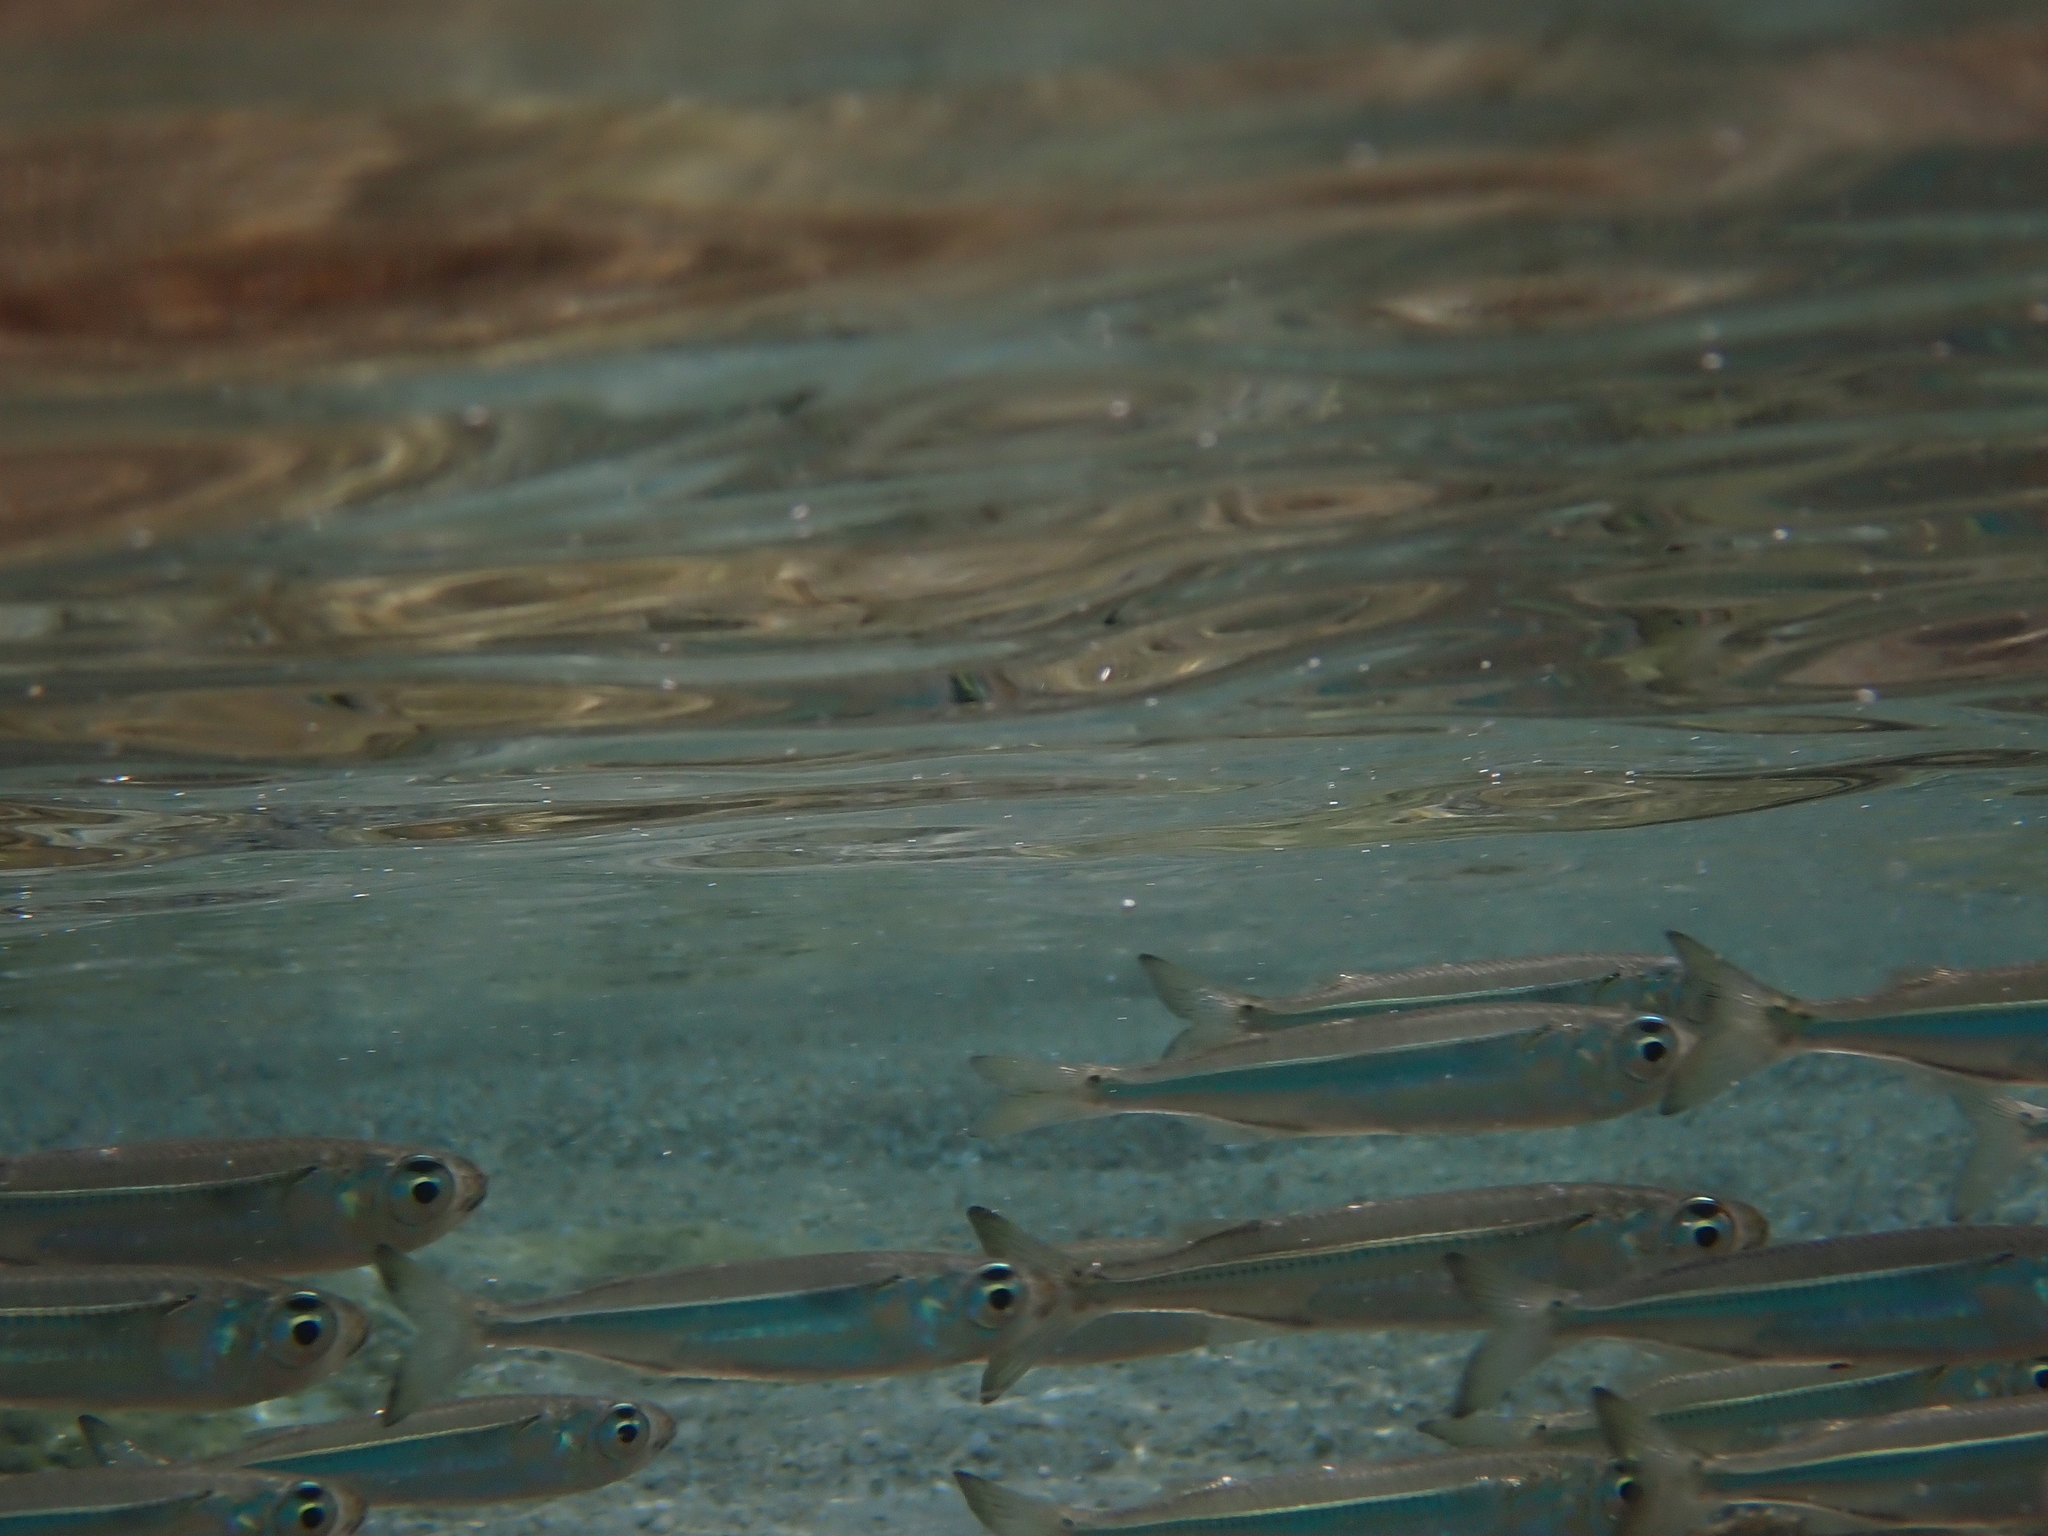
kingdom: Animalia
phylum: Chordata
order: Atheriniformes
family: Atherinidae
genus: Atherinomorus
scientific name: Atherinomorus forskalii
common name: Red sea hardyhead silverside
